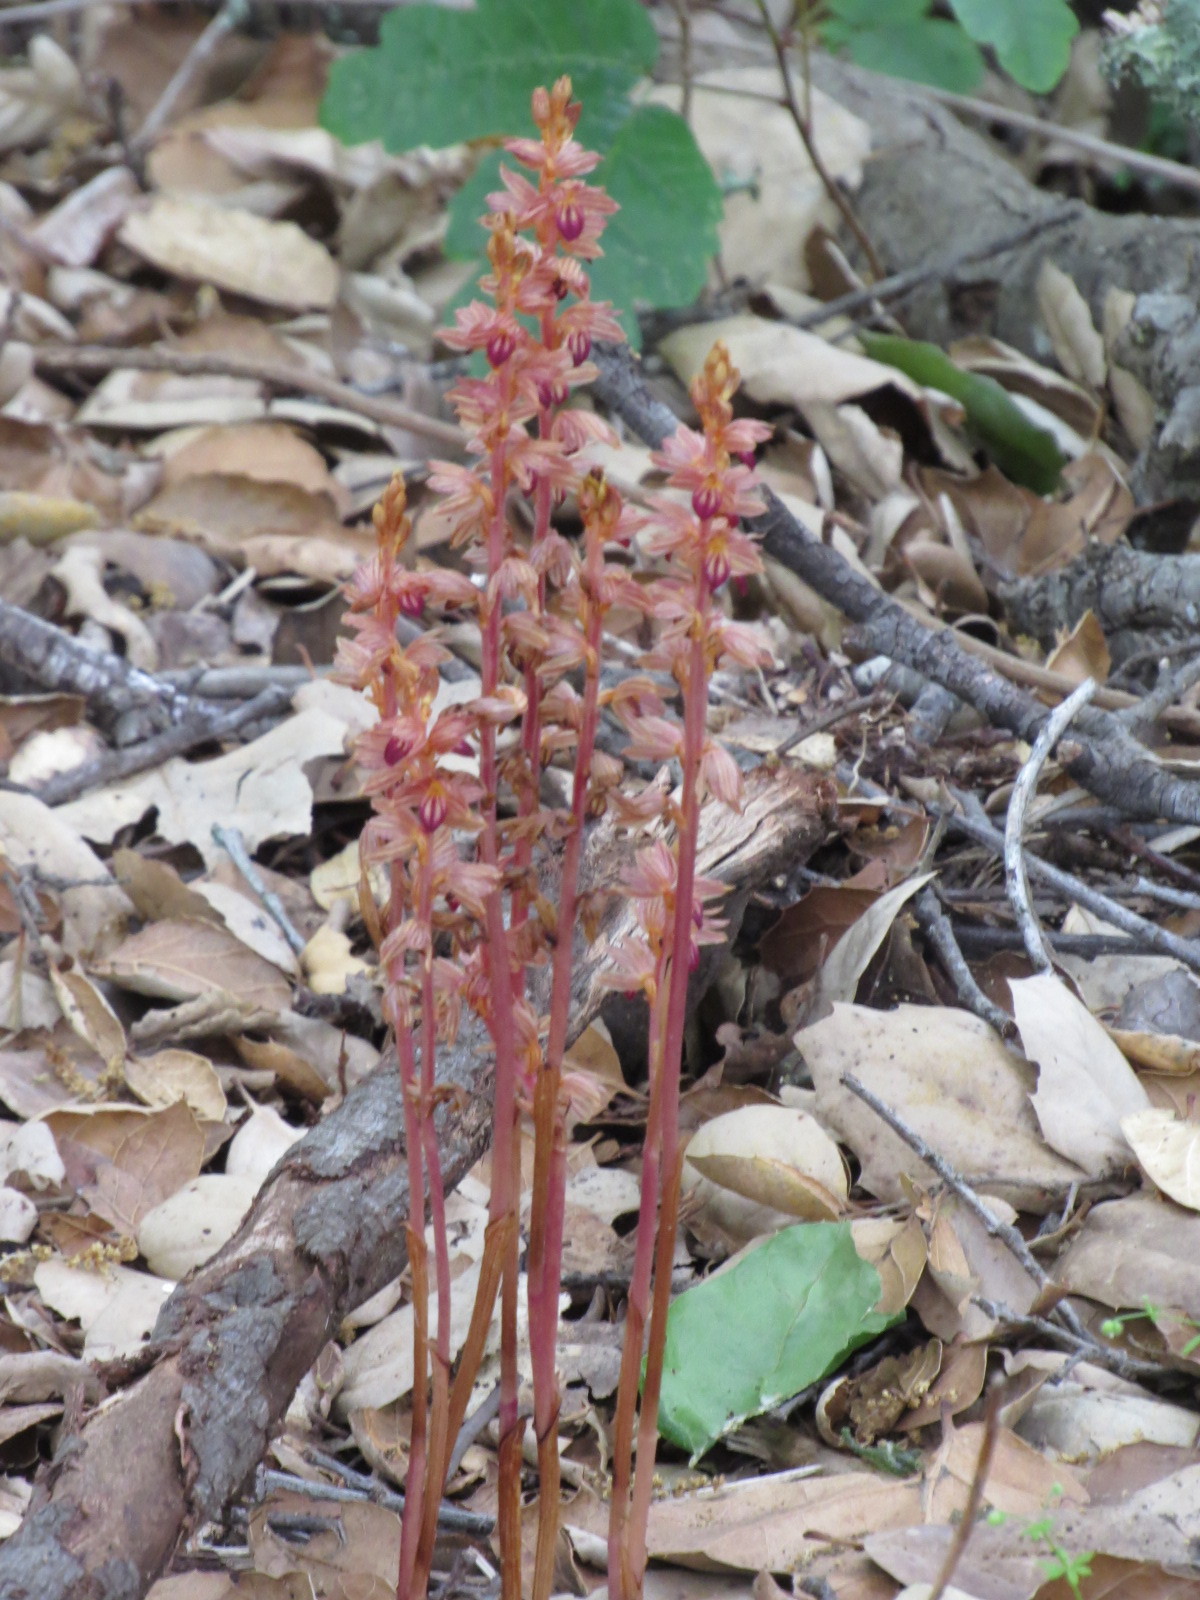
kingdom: Plantae
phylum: Tracheophyta
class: Liliopsida
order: Asparagales
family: Orchidaceae
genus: Corallorhiza
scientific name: Corallorhiza striata
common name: Hooded coralroot
